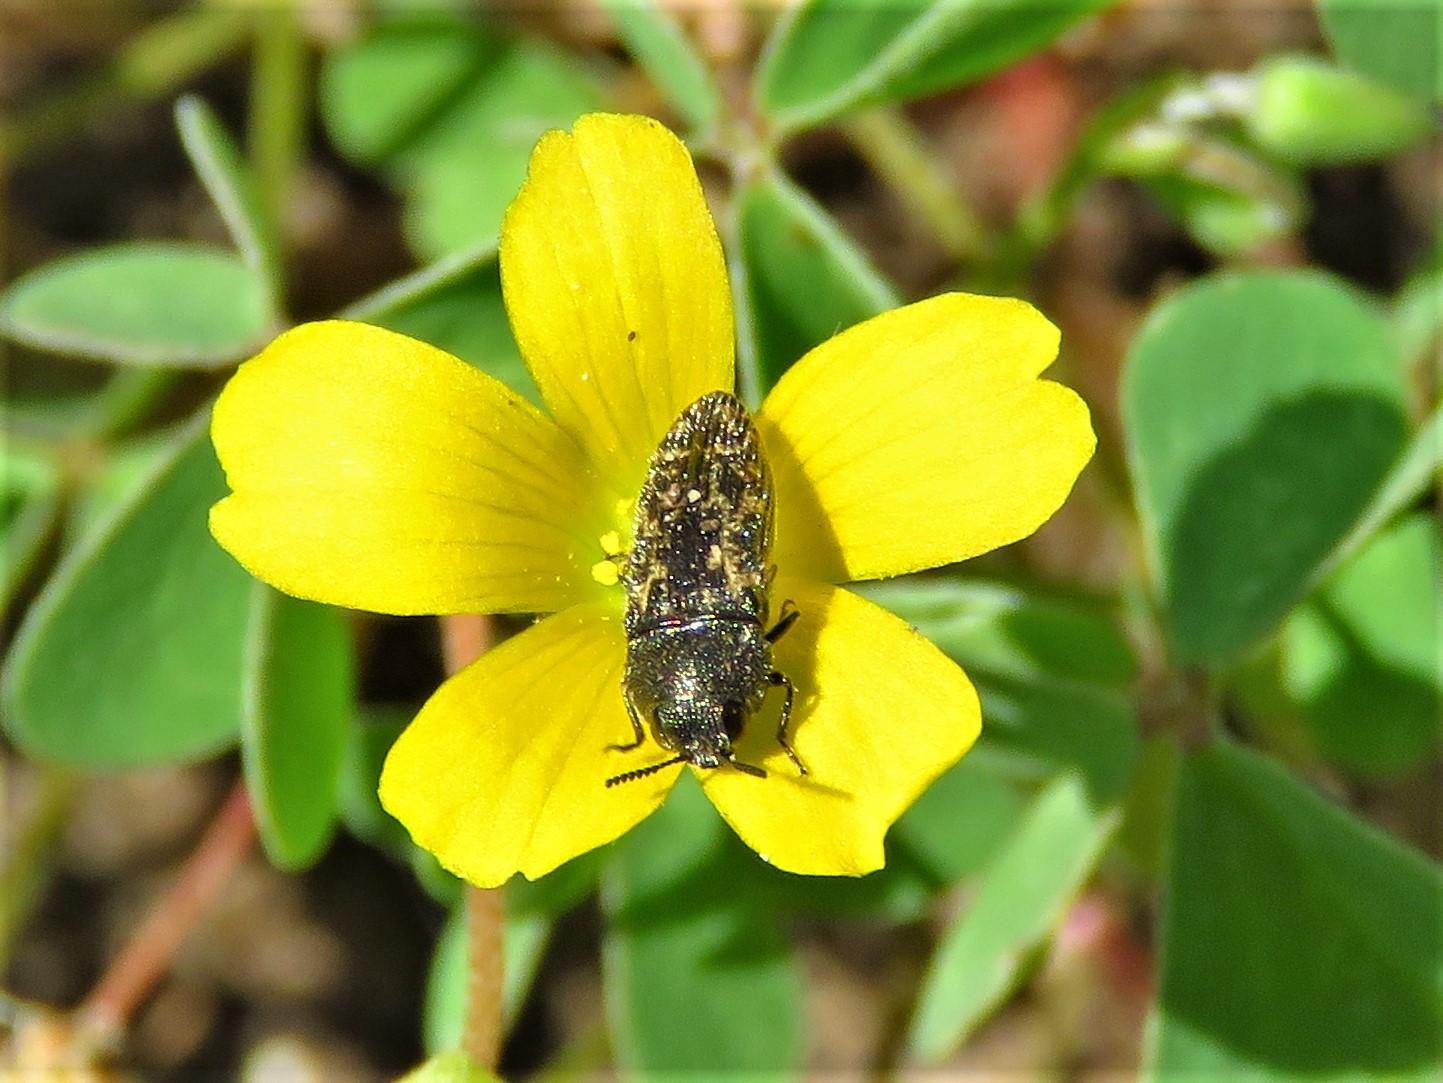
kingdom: Animalia
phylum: Arthropoda
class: Insecta
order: Coleoptera
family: Buprestidae
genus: Acmaeodera
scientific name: Acmaeodera neglecta
